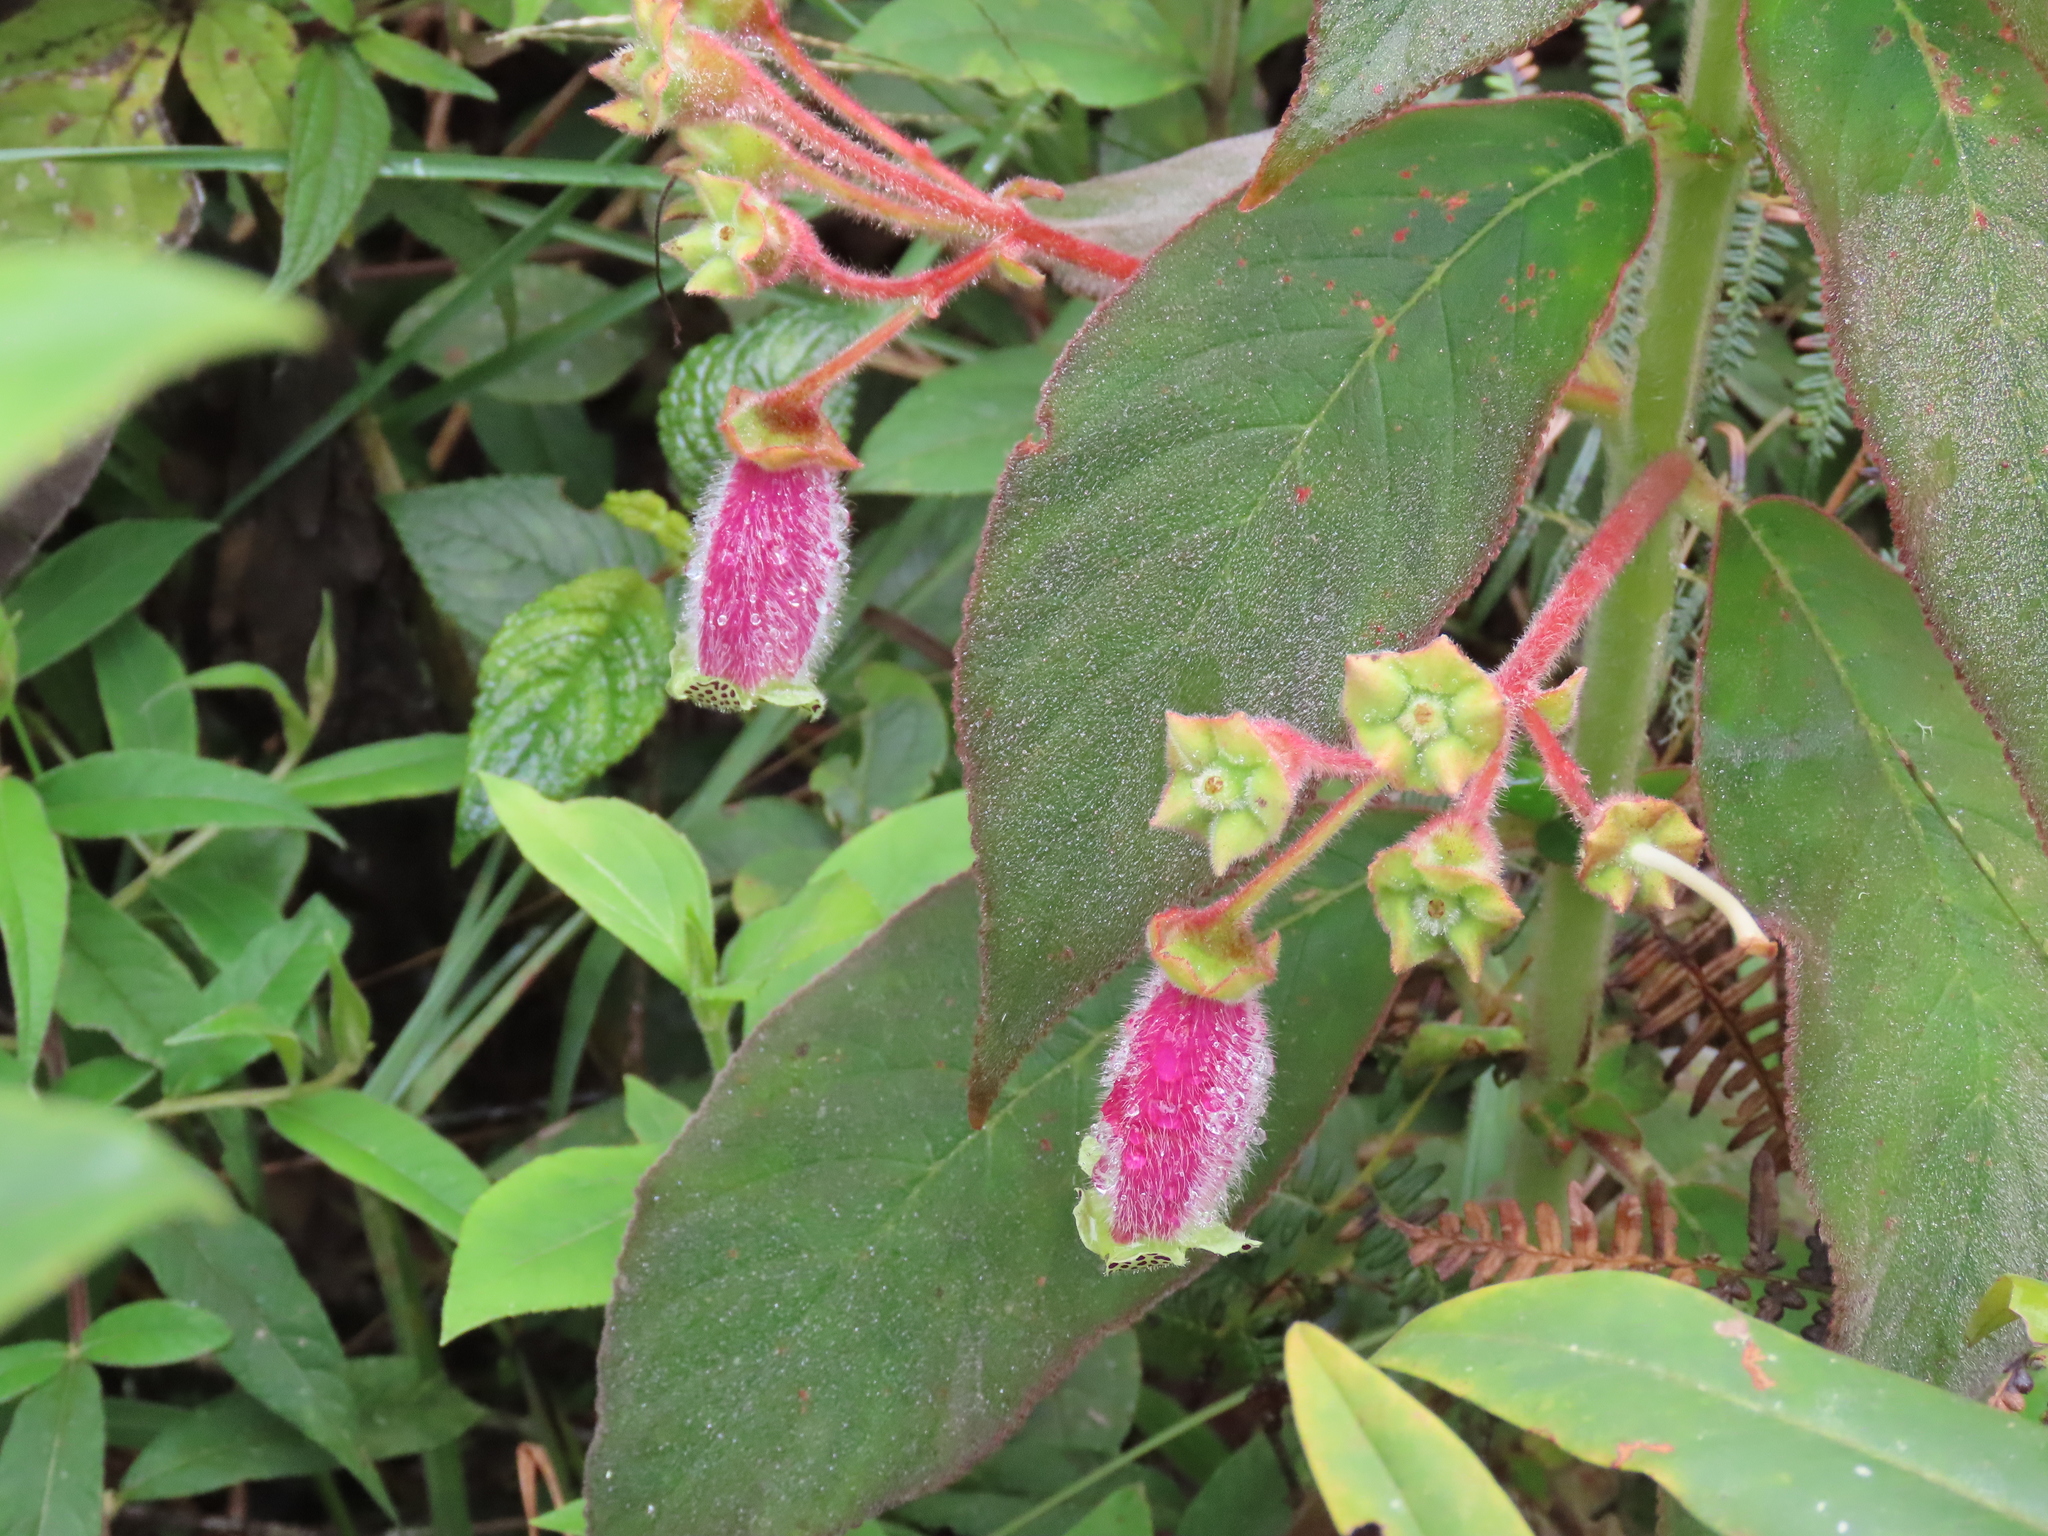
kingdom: Plantae
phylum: Tracheophyta
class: Magnoliopsida
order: Lamiales
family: Gesneriaceae
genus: Kohleria
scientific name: Kohleria warszewiczii
